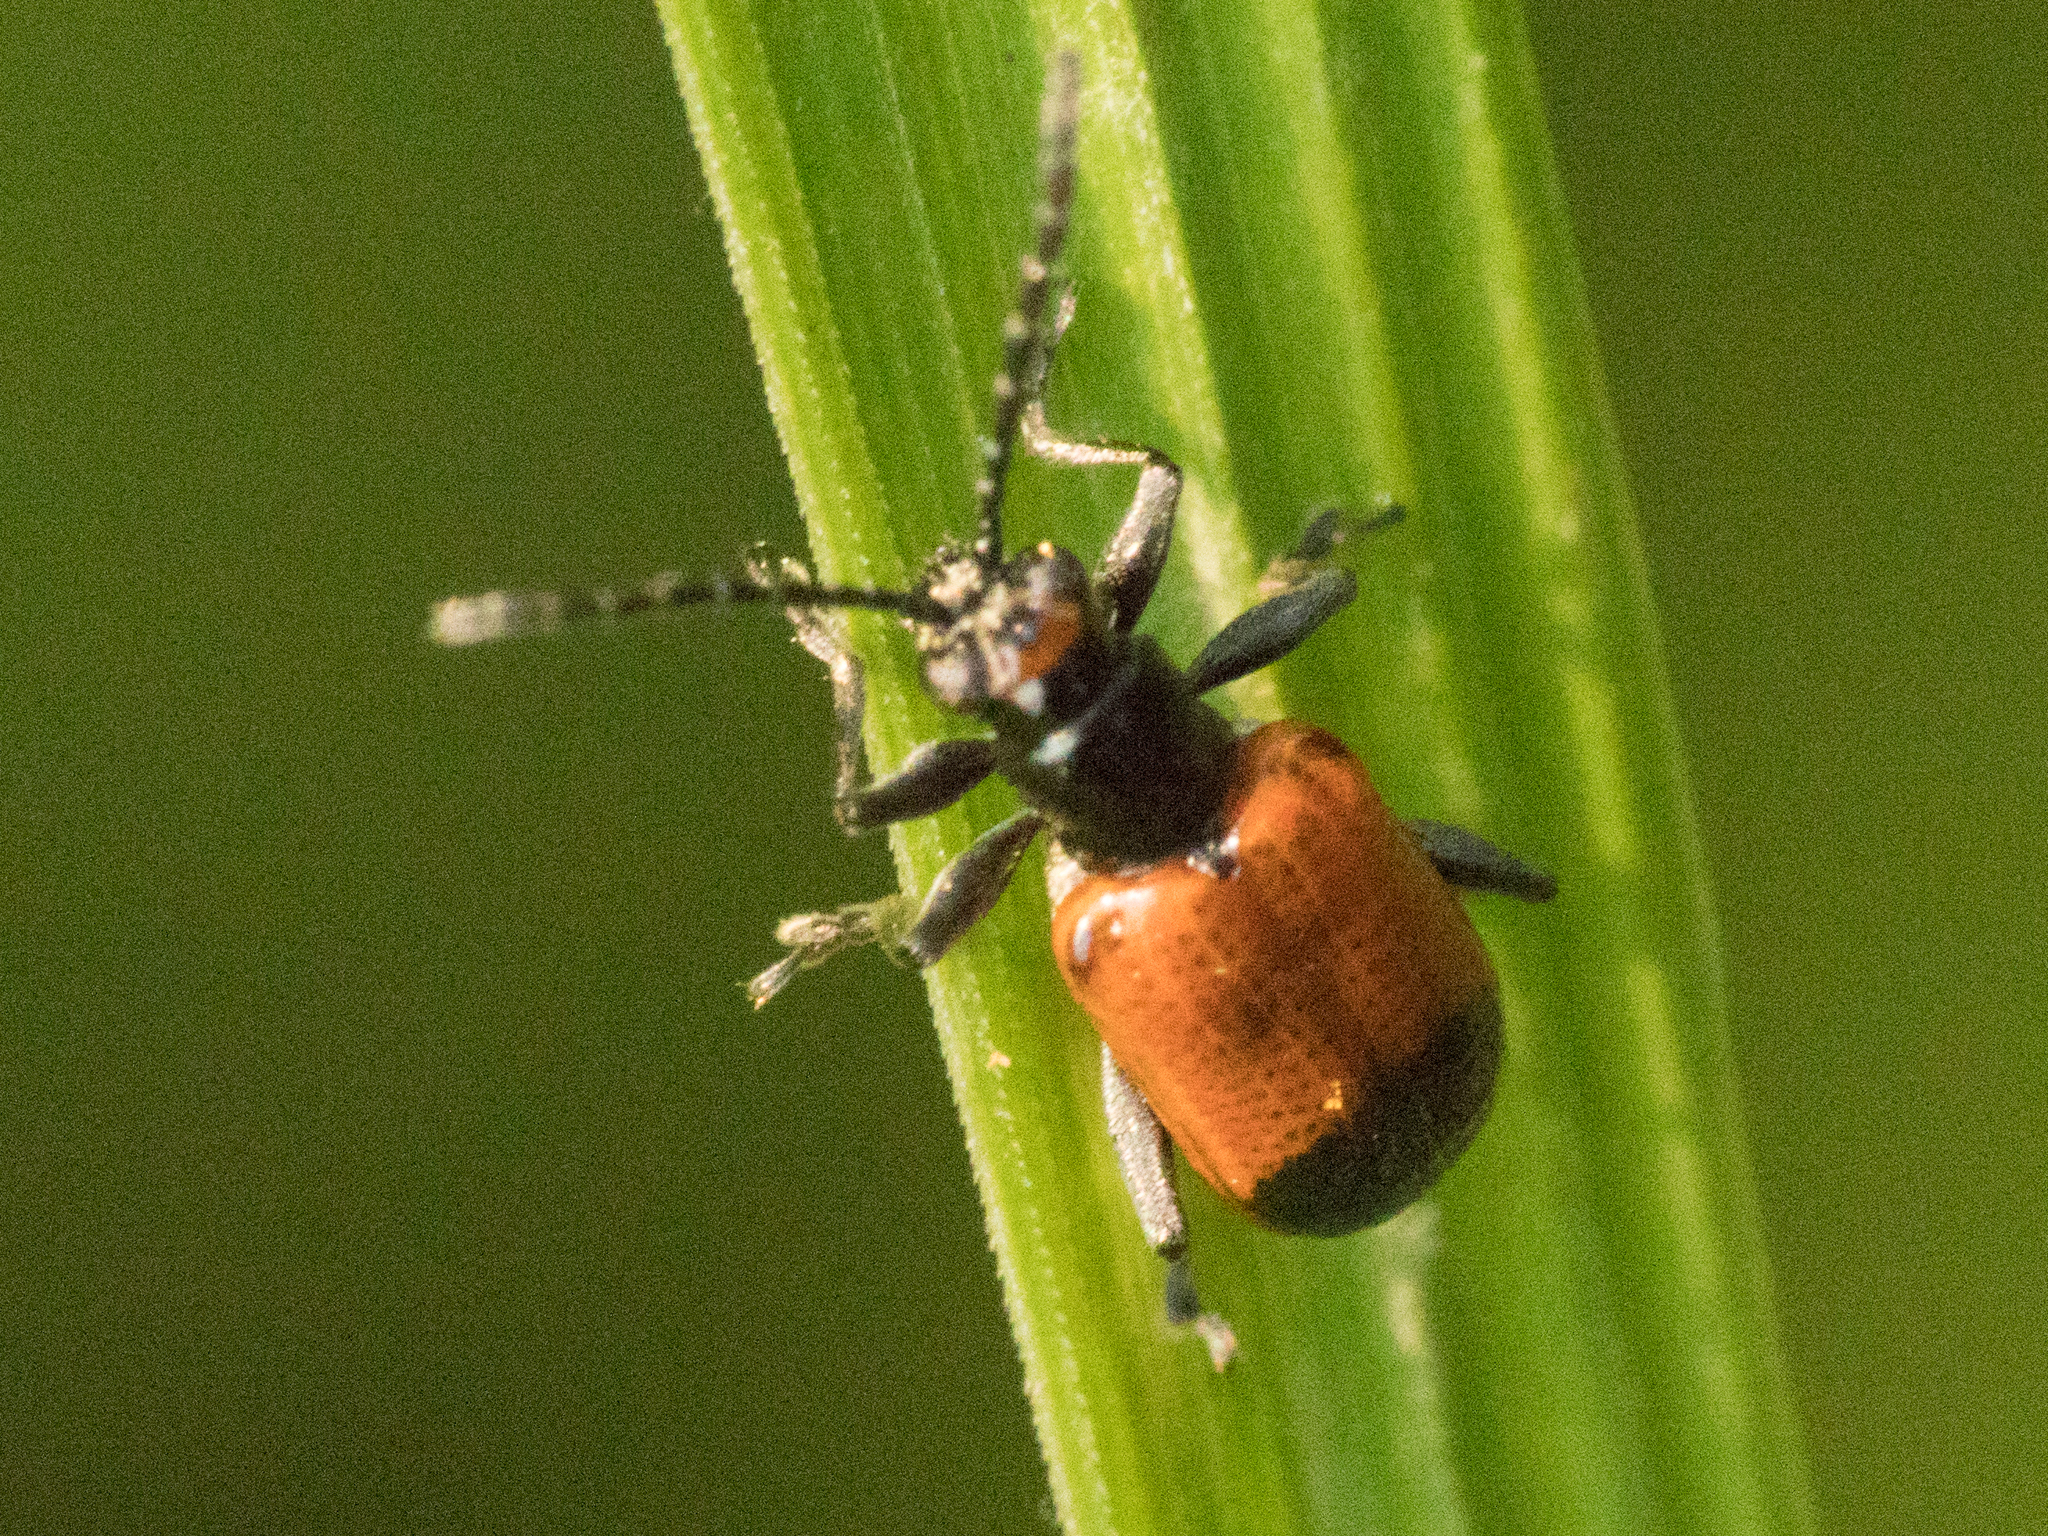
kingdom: Animalia
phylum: Arthropoda
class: Insecta
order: Coleoptera
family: Chrysomelidae
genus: Neolema
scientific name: Neolema dorsalis
